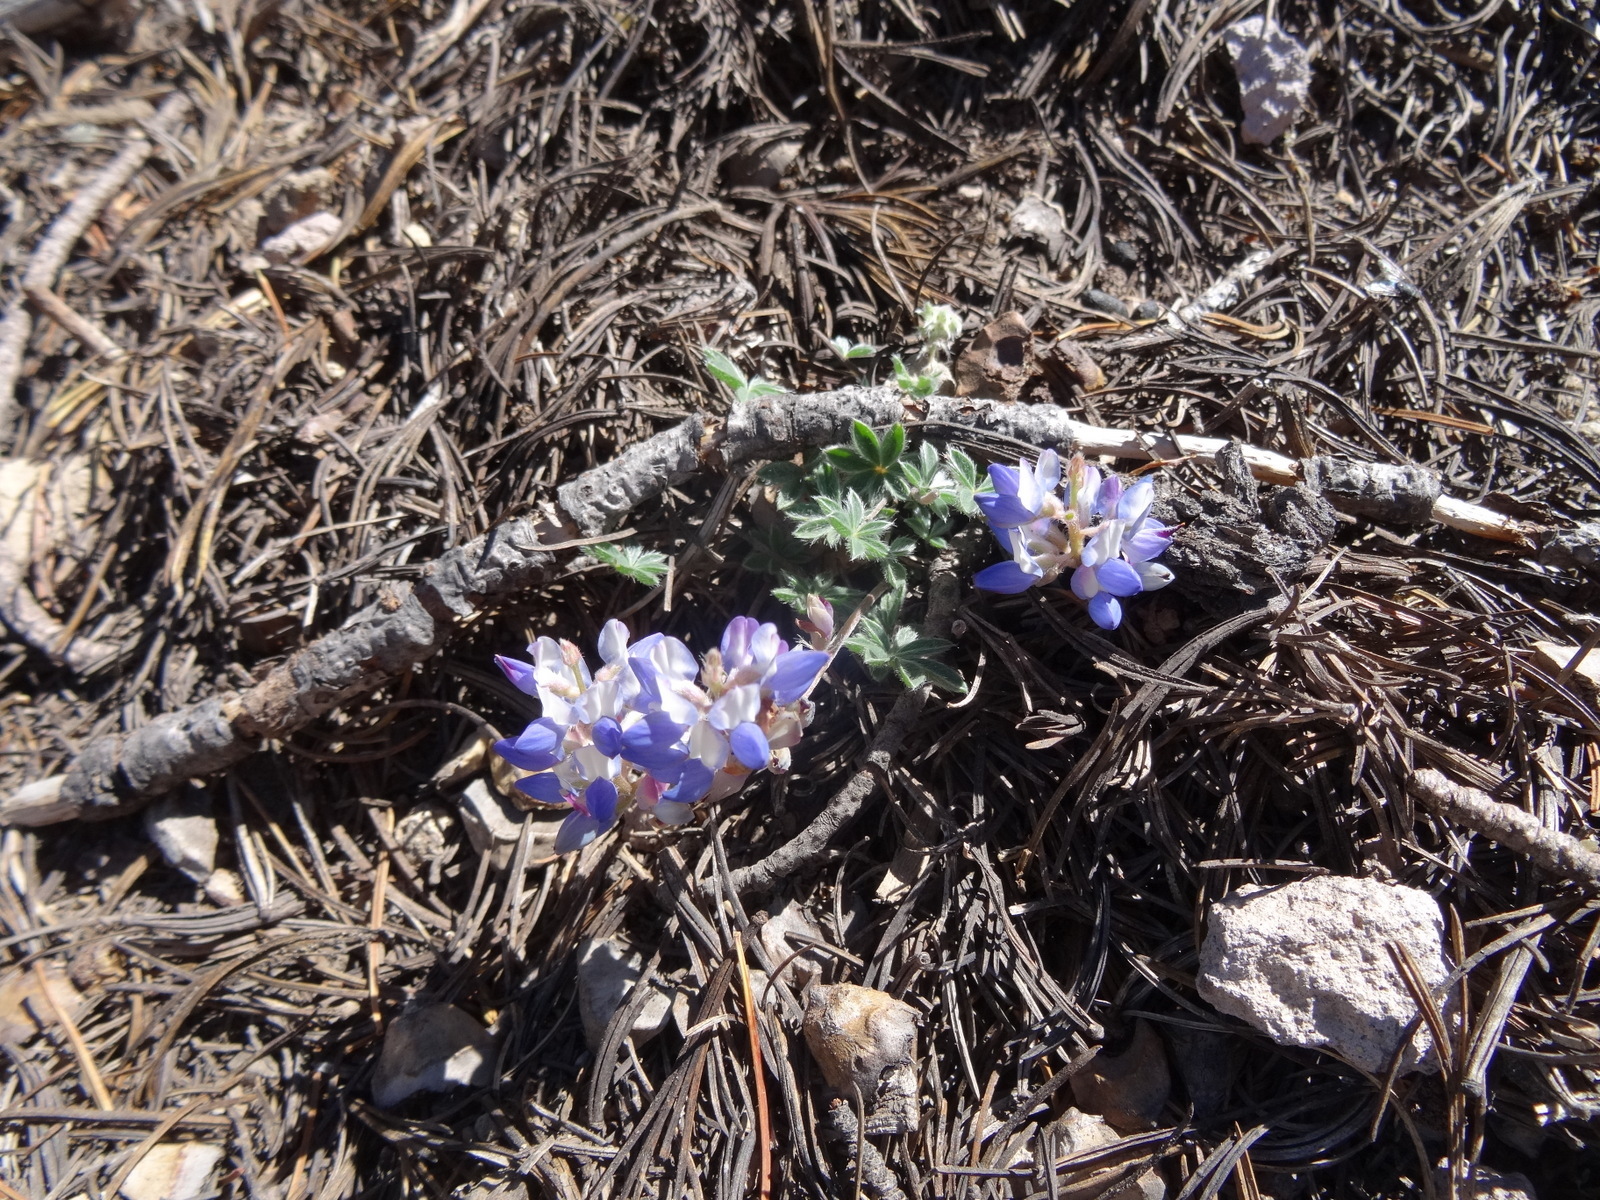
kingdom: Plantae
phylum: Tracheophyta
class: Magnoliopsida
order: Fabales
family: Fabaceae
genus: Lupinus
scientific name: Lupinus sellulus
